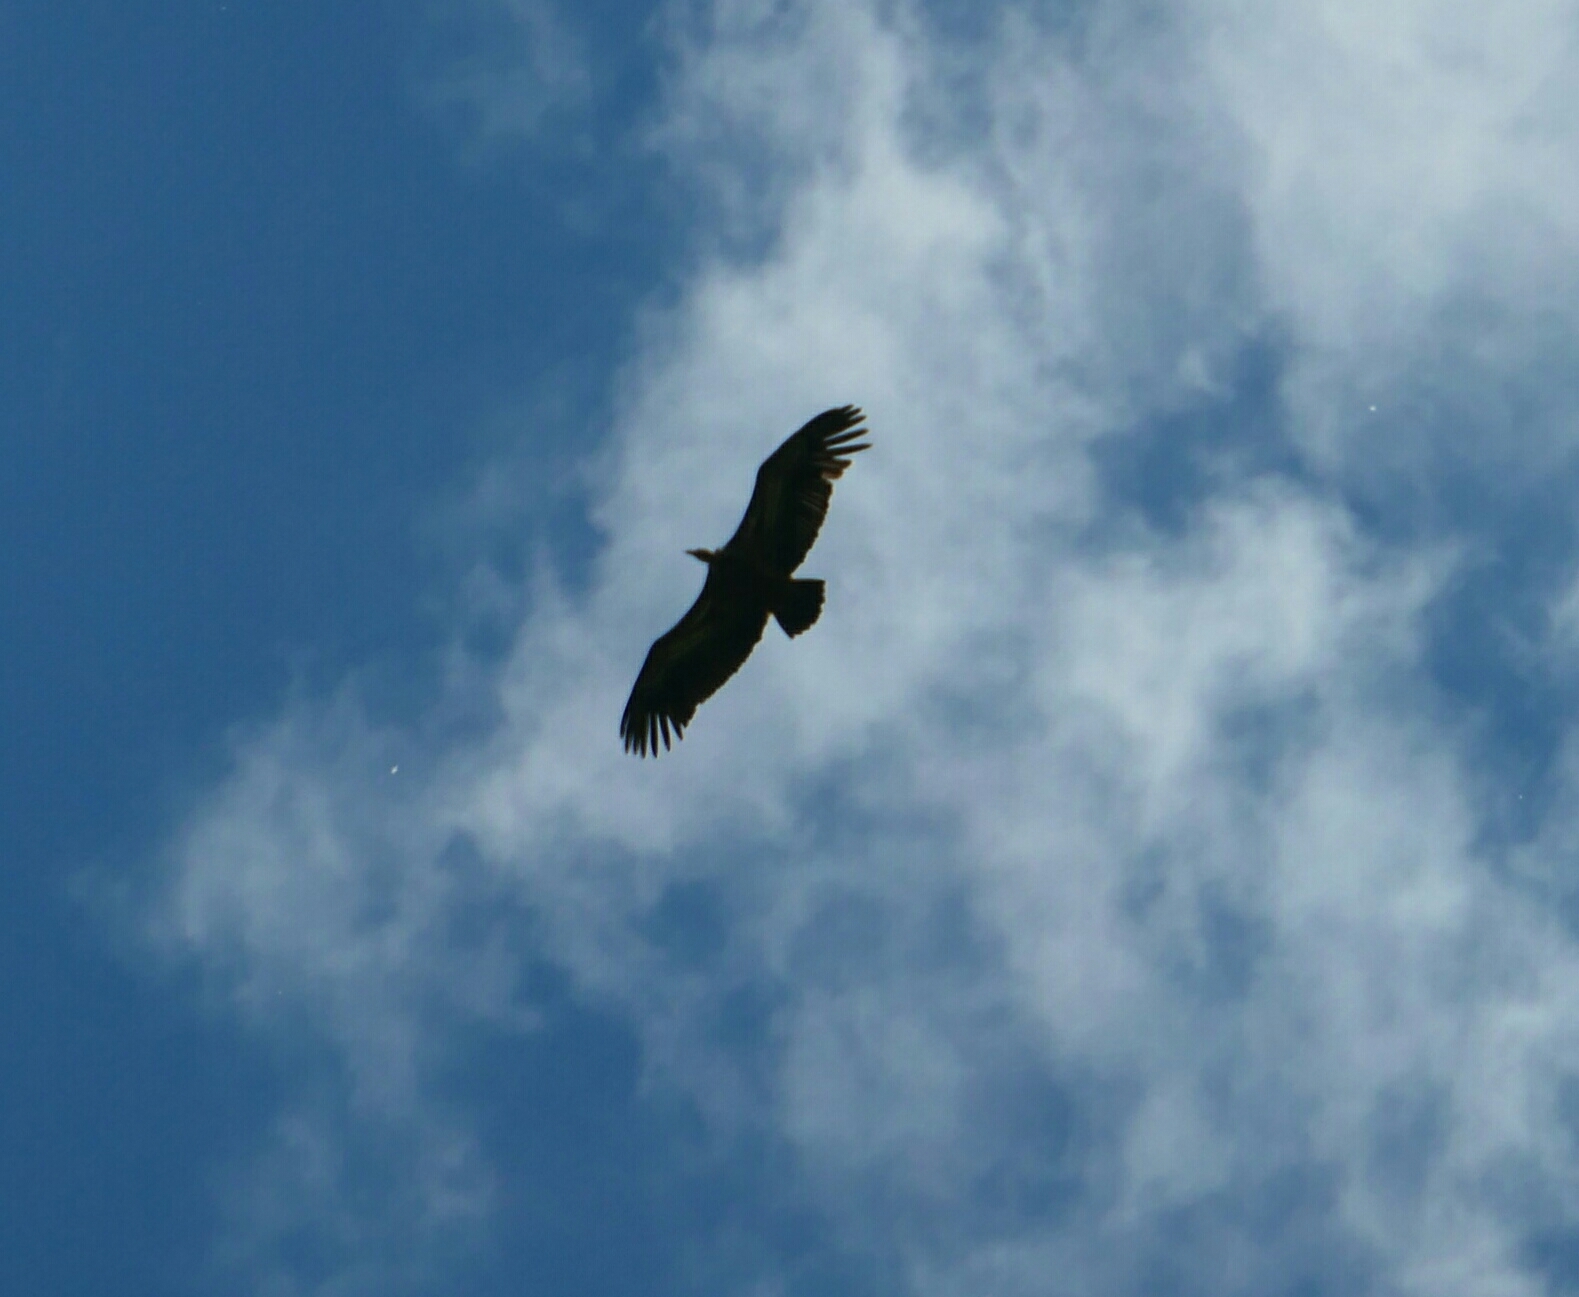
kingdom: Animalia
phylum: Chordata
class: Aves
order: Accipitriformes
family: Accipitridae
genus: Gyps
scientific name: Gyps fulvus
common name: Griffon vulture
